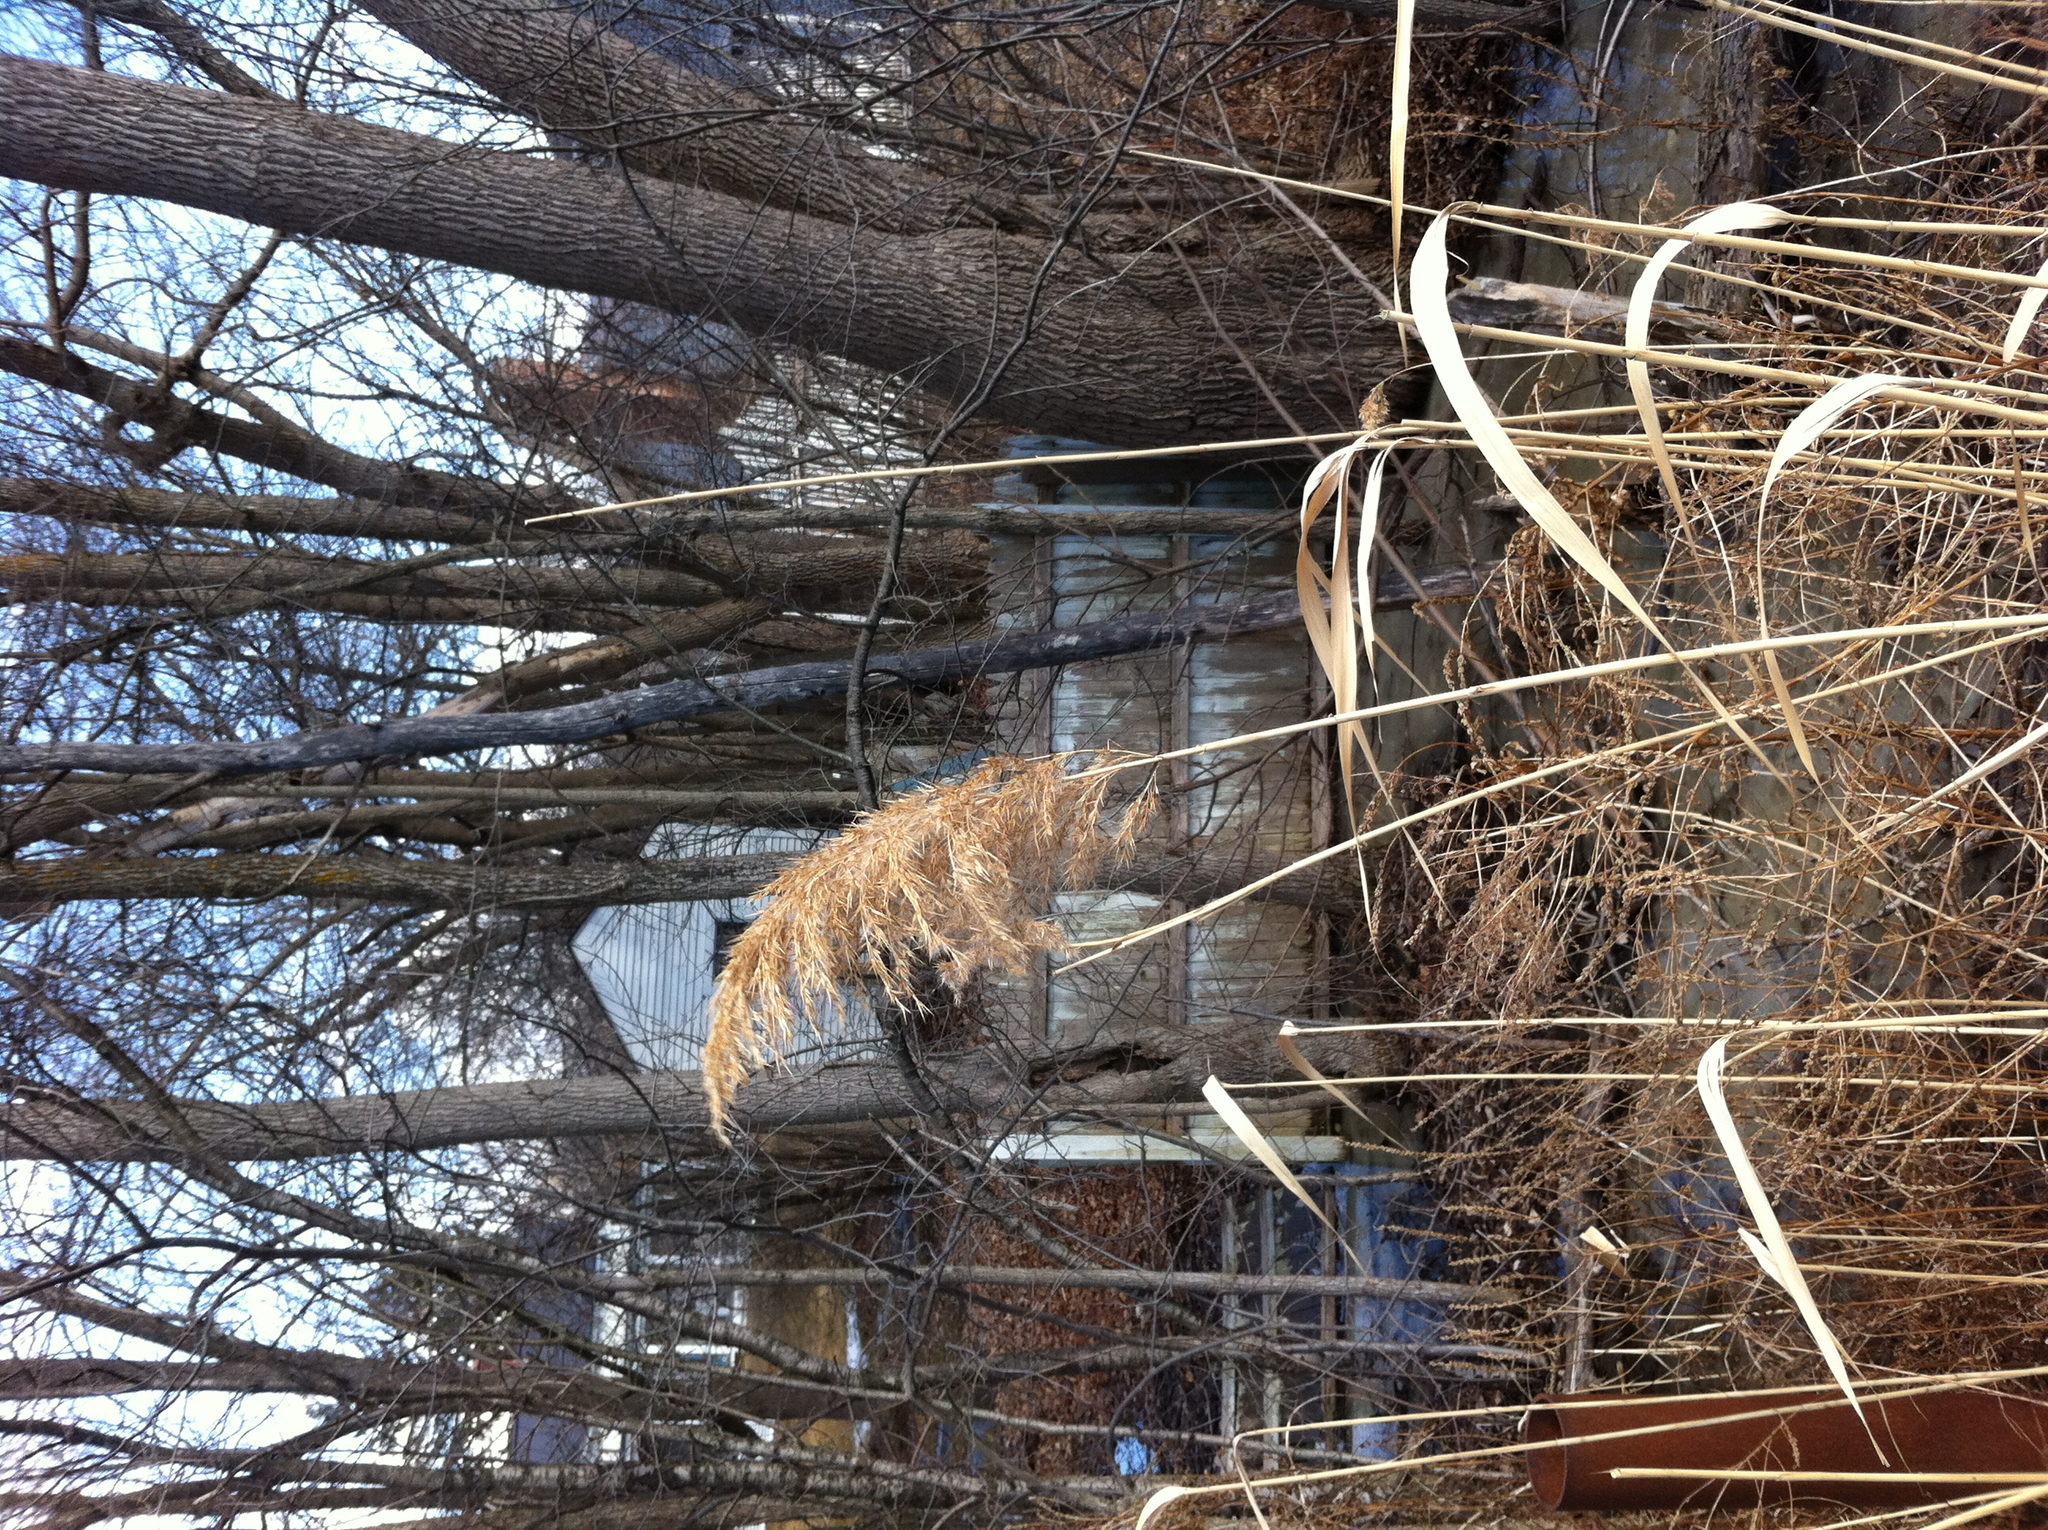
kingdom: Plantae
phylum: Tracheophyta
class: Liliopsida
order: Poales
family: Poaceae
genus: Phragmites
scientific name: Phragmites australis
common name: Common reed
